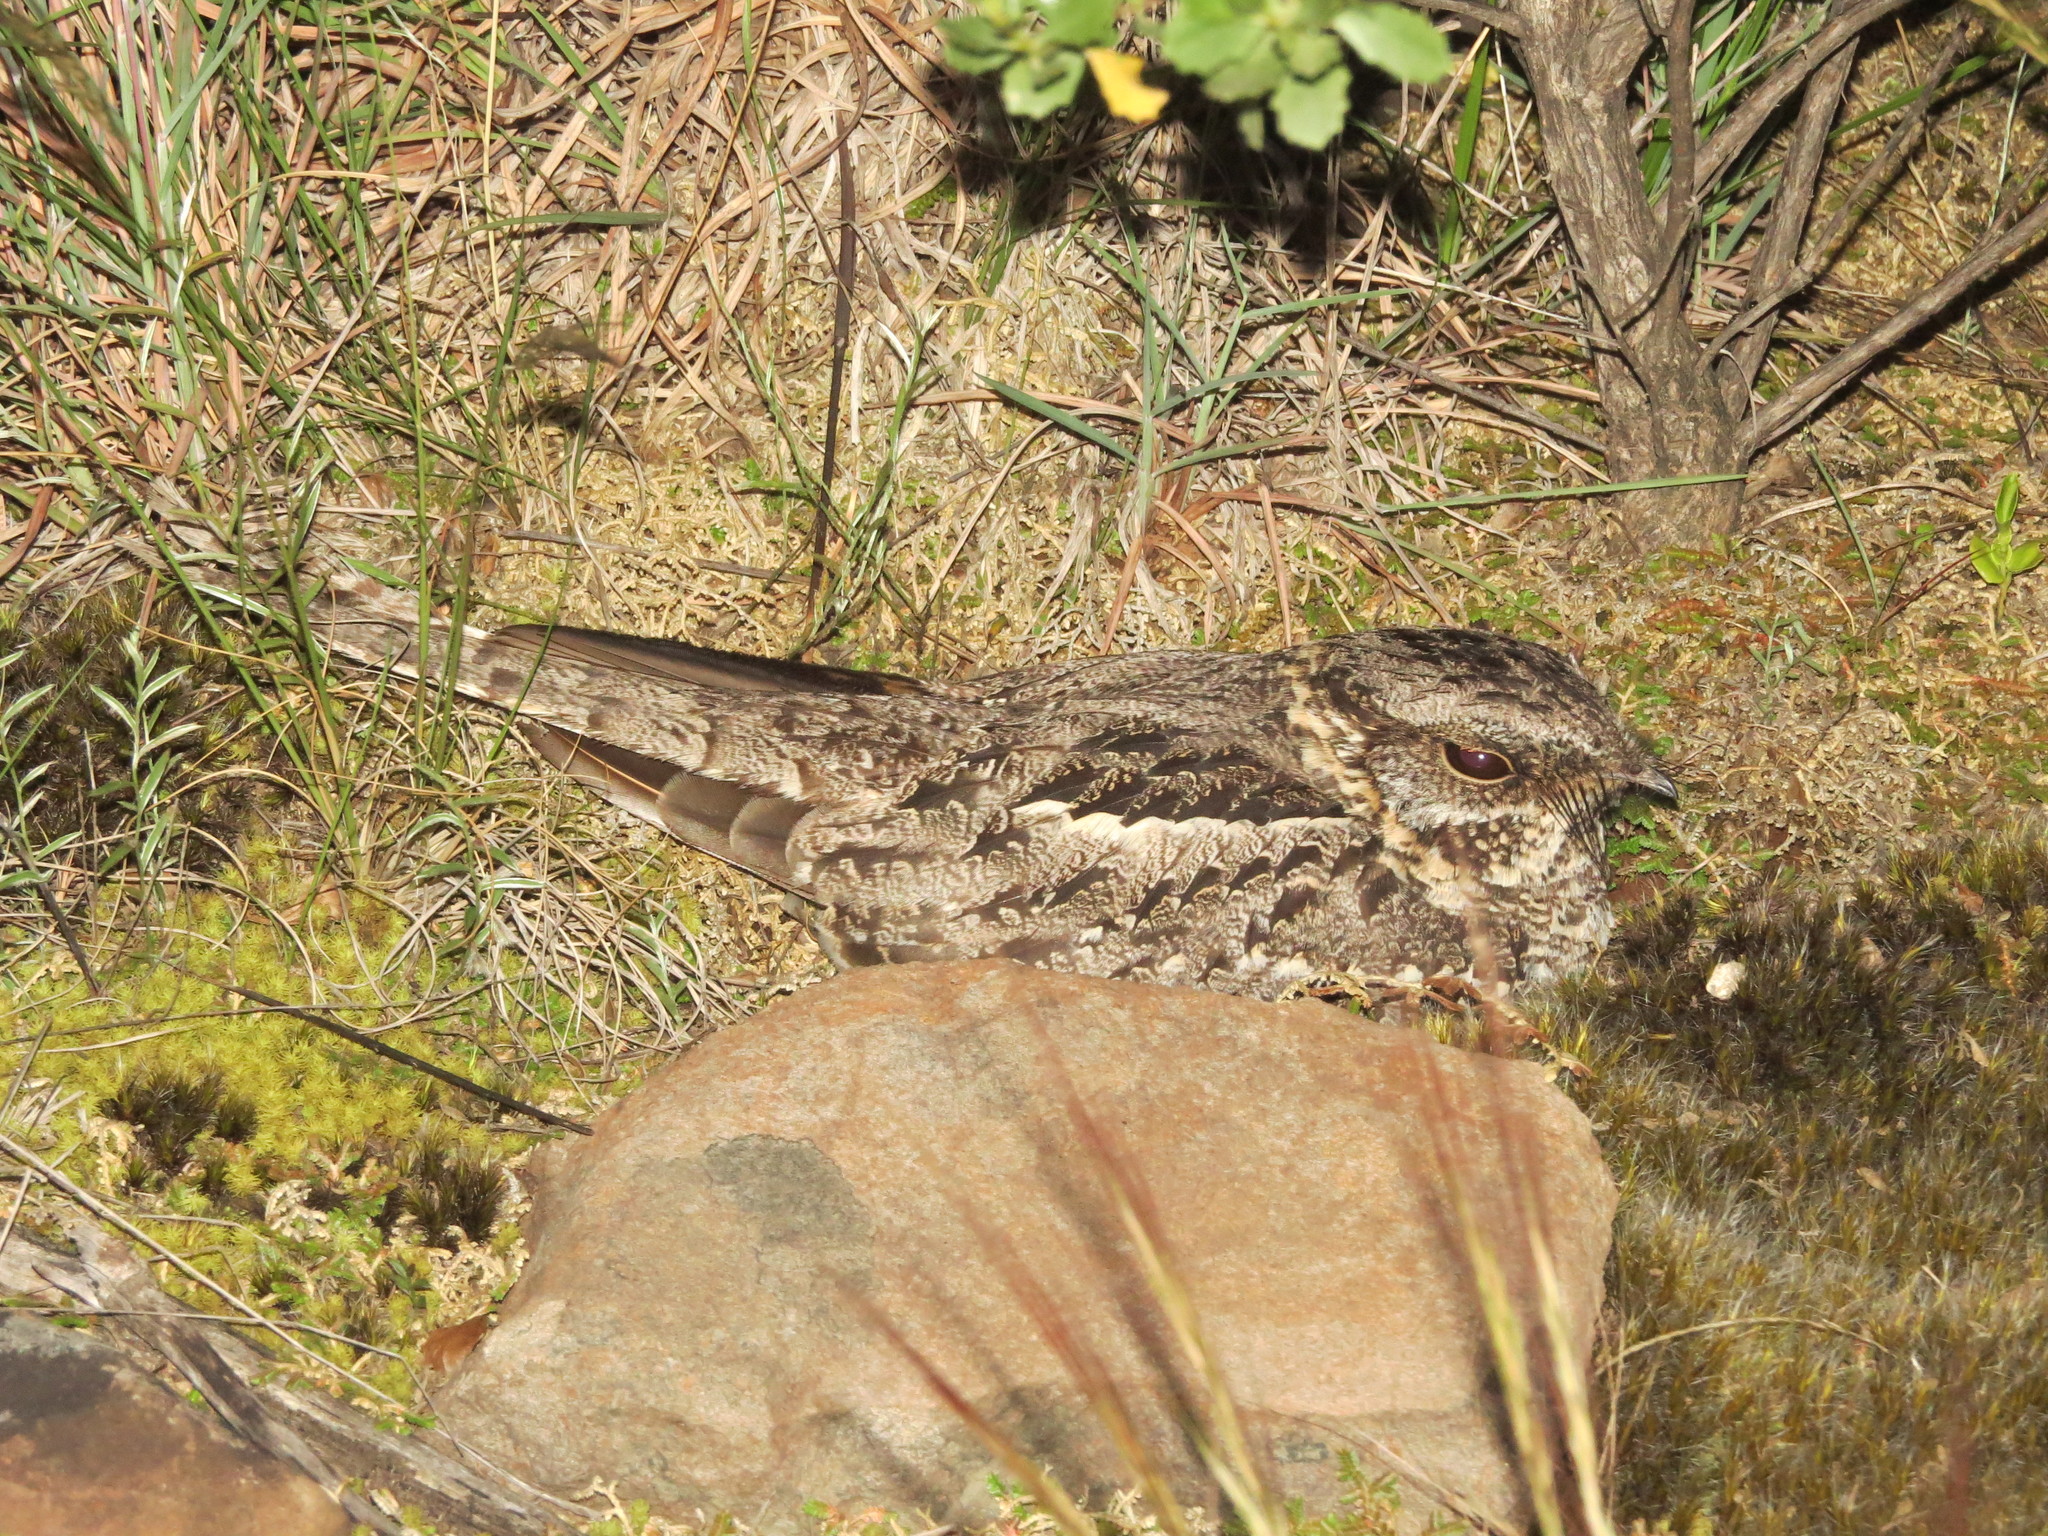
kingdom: Animalia
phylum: Chordata
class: Aves
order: Caprimulgiformes
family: Caprimulgidae
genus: Hydropsalis
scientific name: Hydropsalis torquata
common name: Scissor-tailed nightjar
